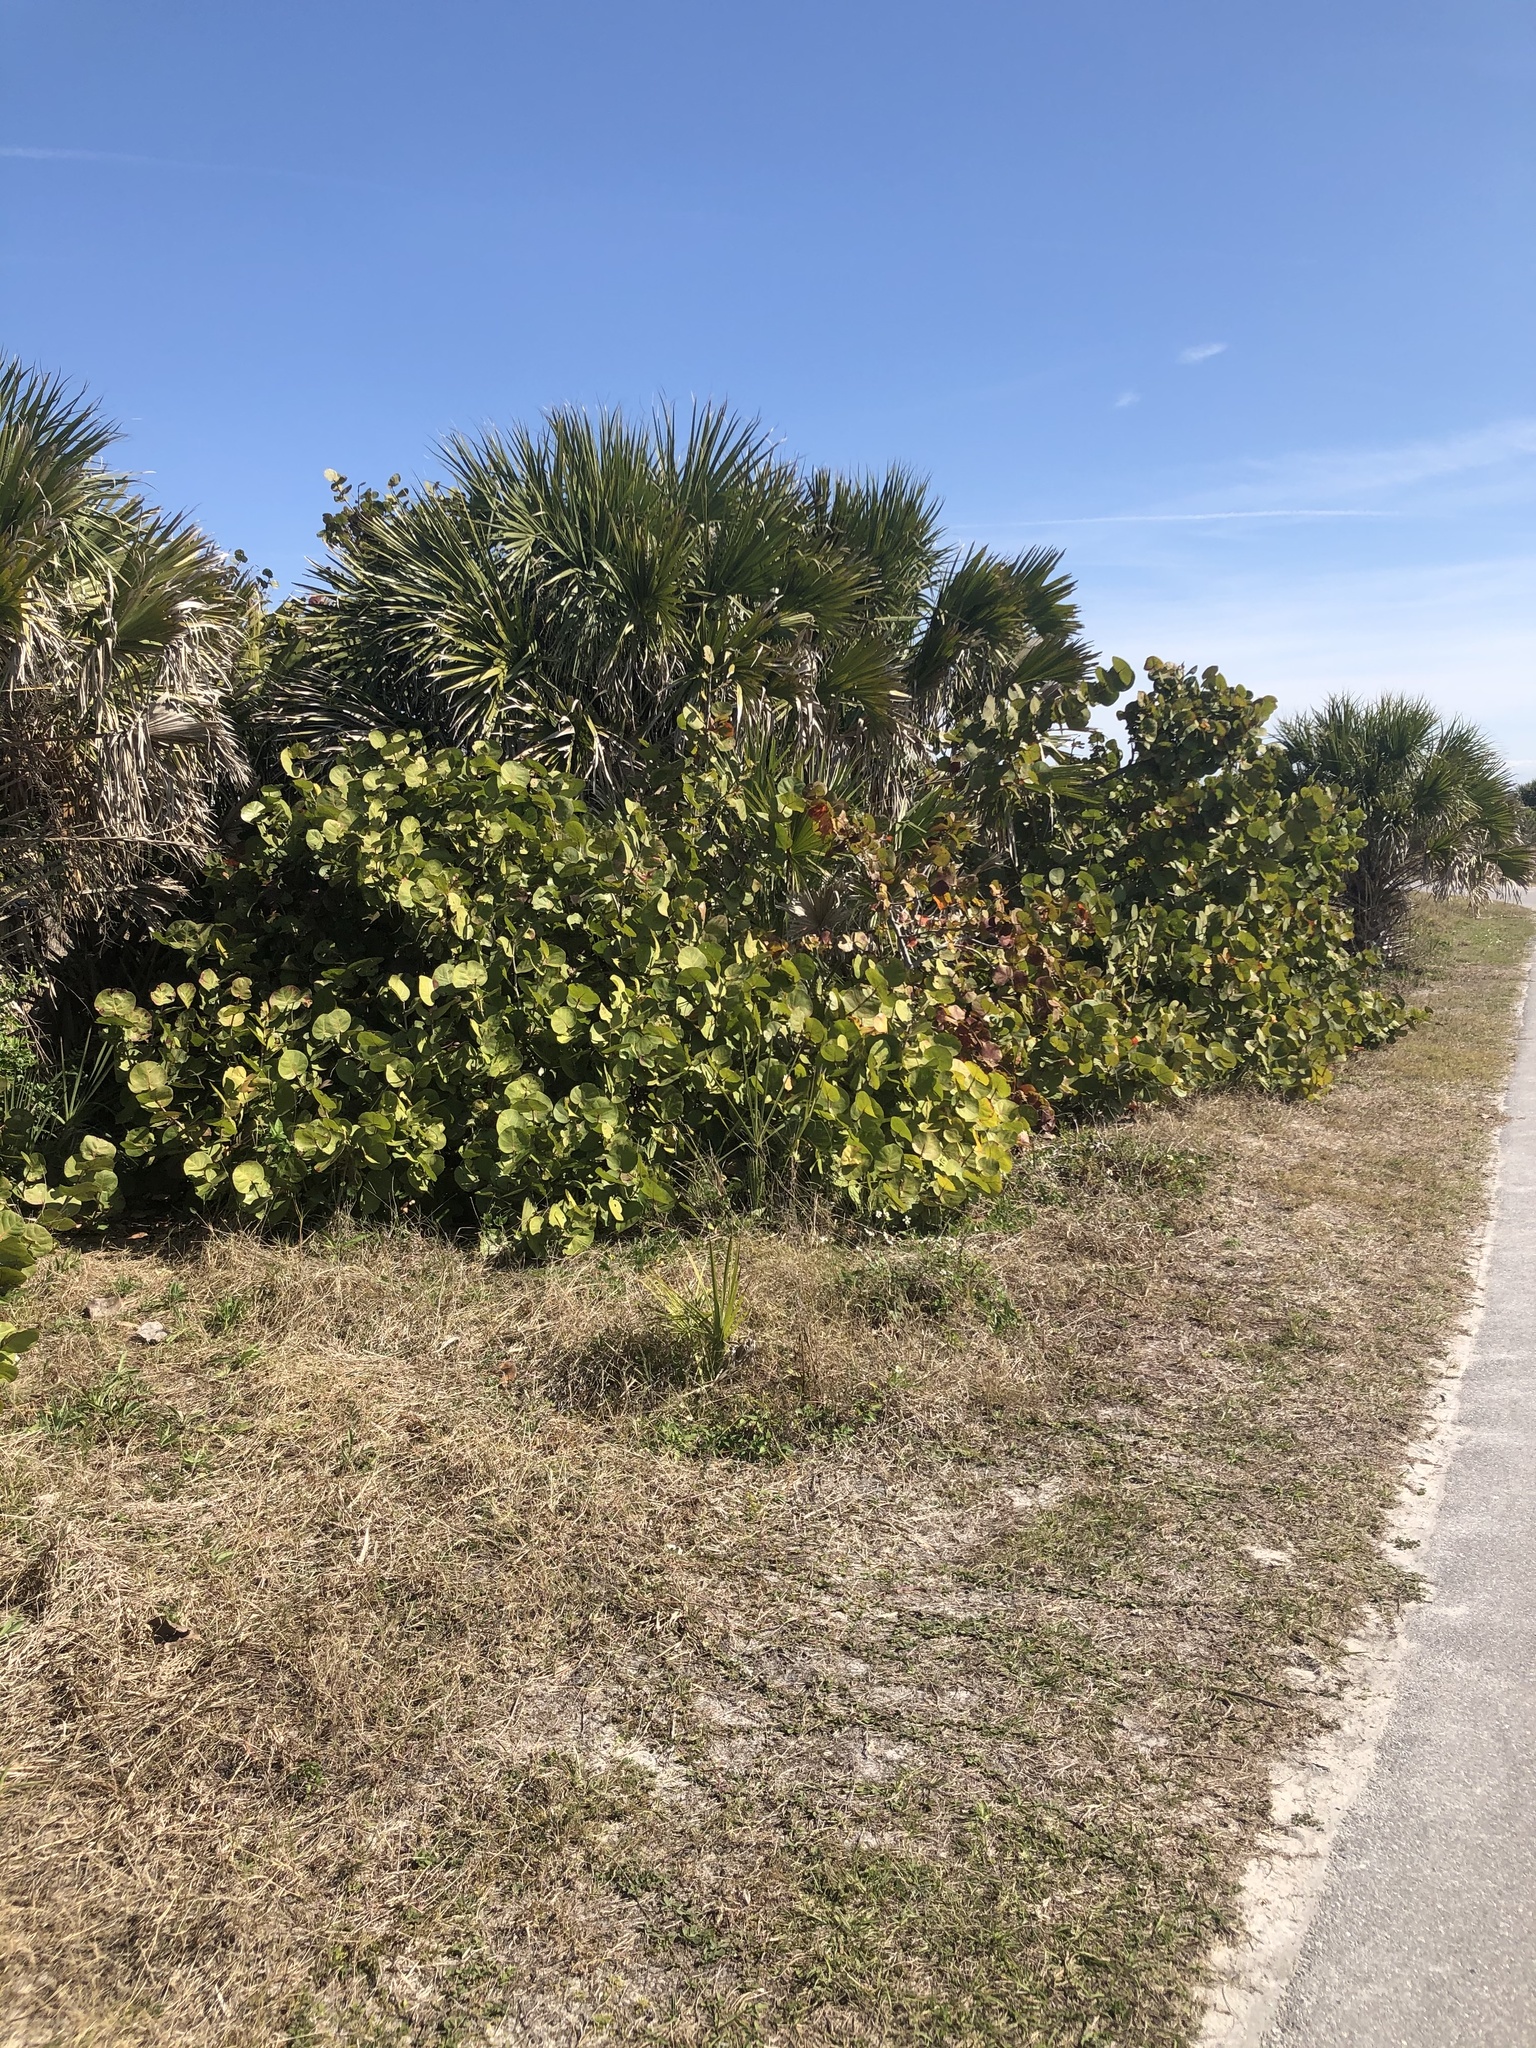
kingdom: Plantae
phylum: Tracheophyta
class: Magnoliopsida
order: Caryophyllales
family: Polygonaceae
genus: Coccoloba
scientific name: Coccoloba uvifera
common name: Seagrape
